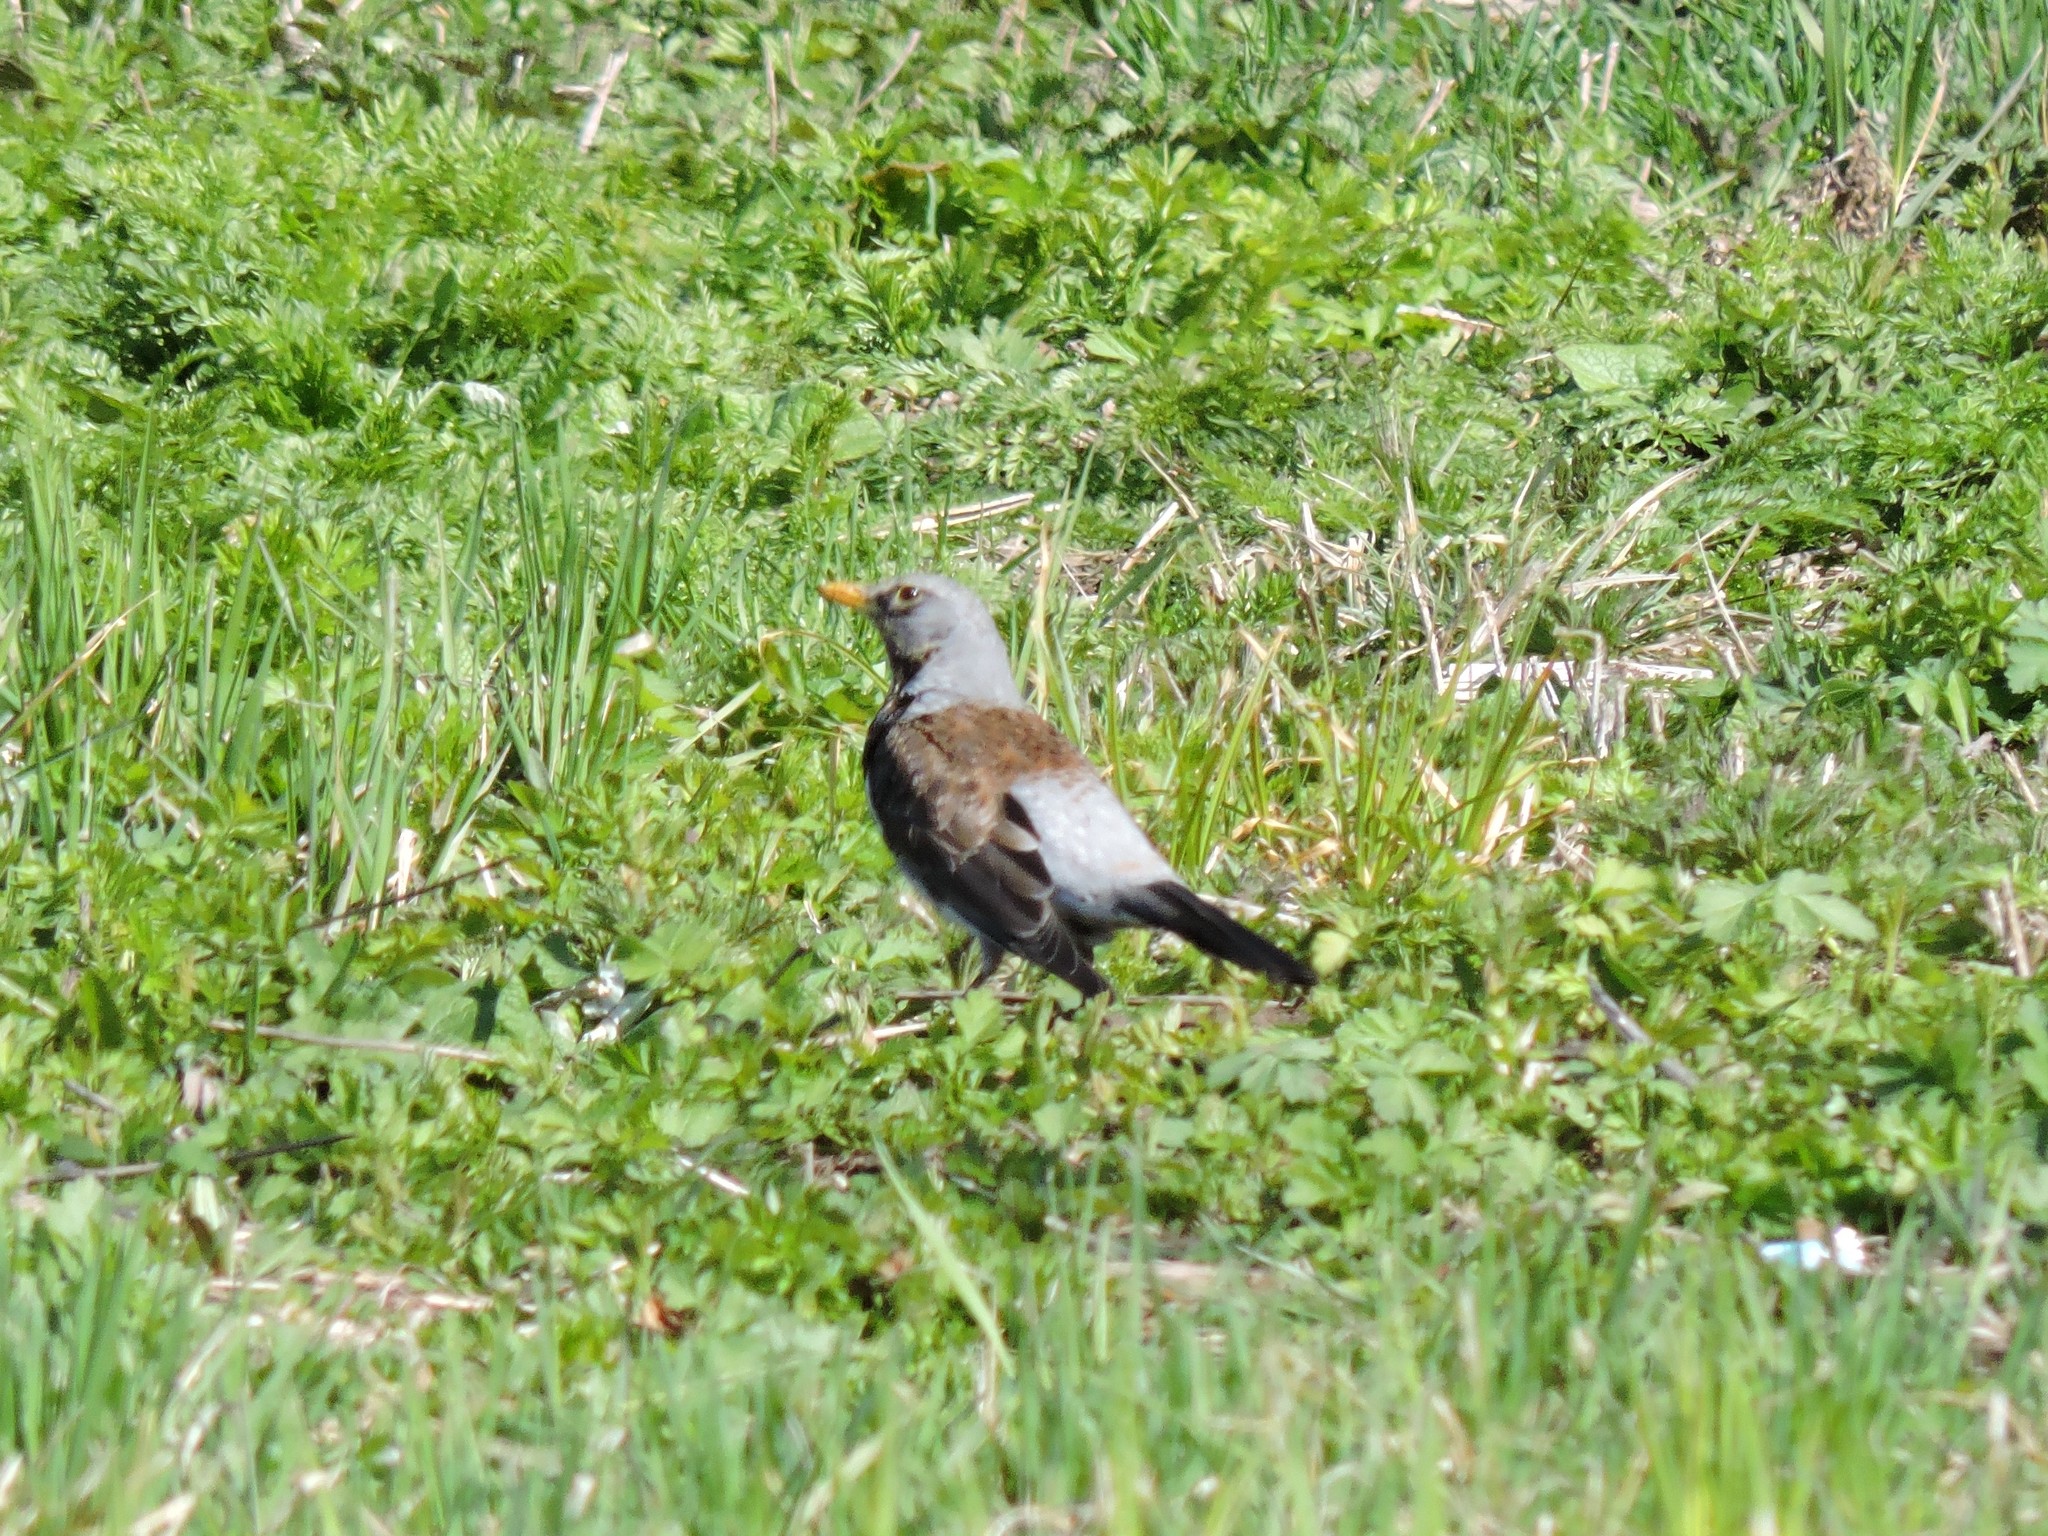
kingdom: Animalia
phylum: Chordata
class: Aves
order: Passeriformes
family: Turdidae
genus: Turdus
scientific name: Turdus pilaris
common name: Fieldfare
